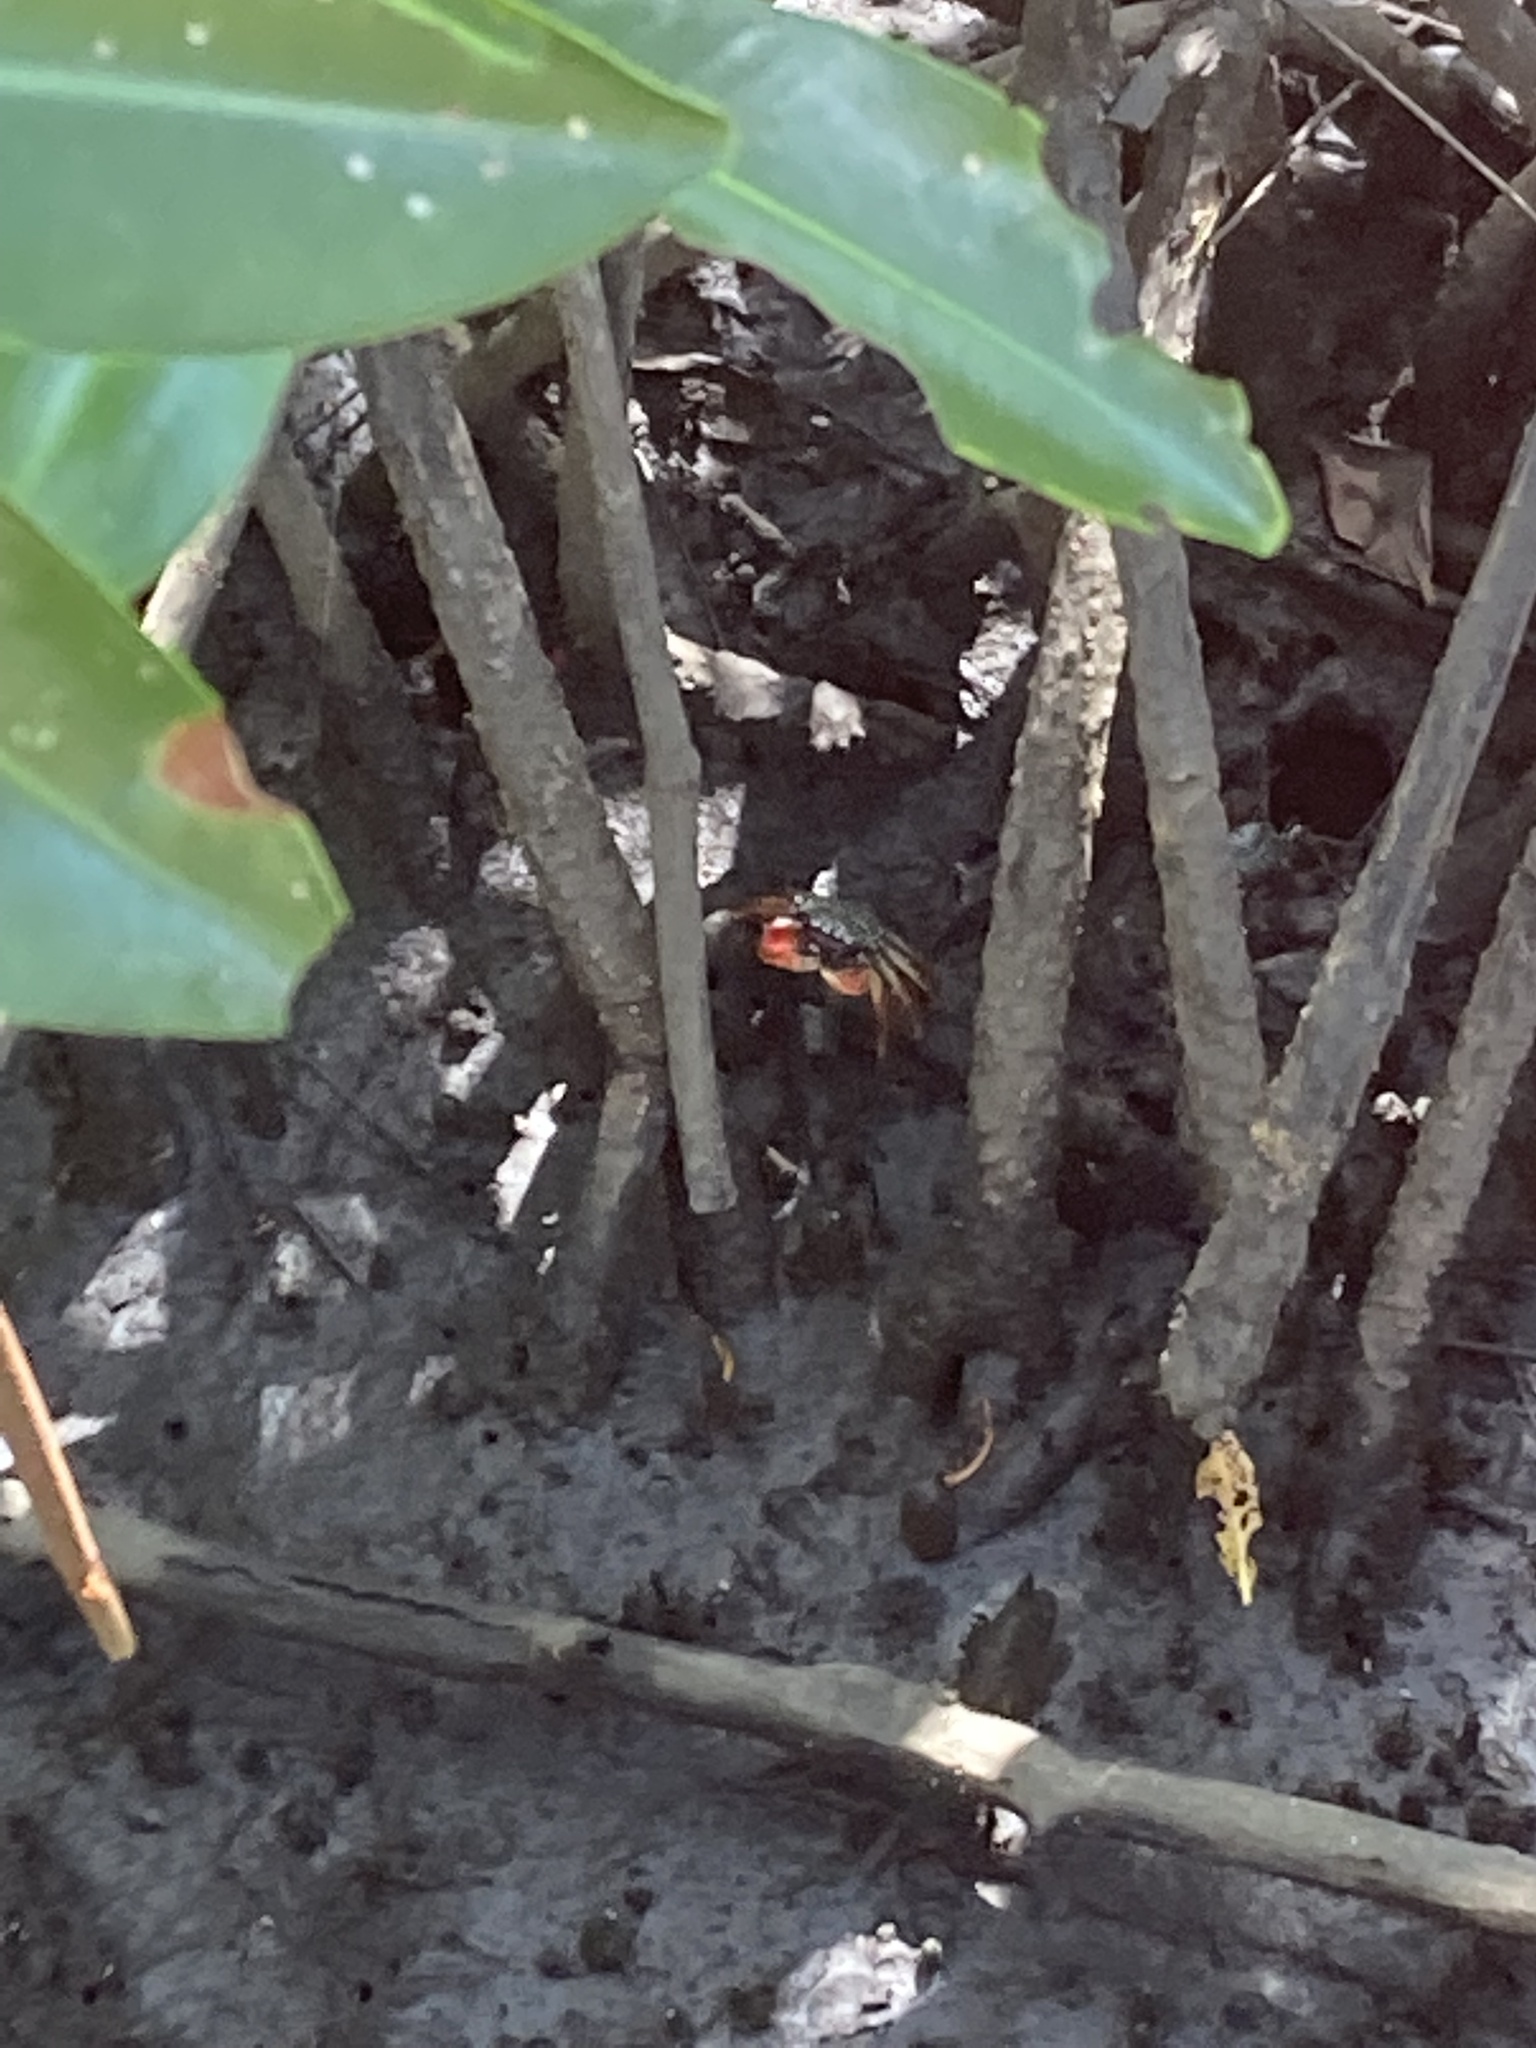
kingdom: Animalia
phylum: Arthropoda
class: Malacostraca
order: Decapoda
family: Grapsidae
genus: Goniopsis
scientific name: Goniopsis pulchra
